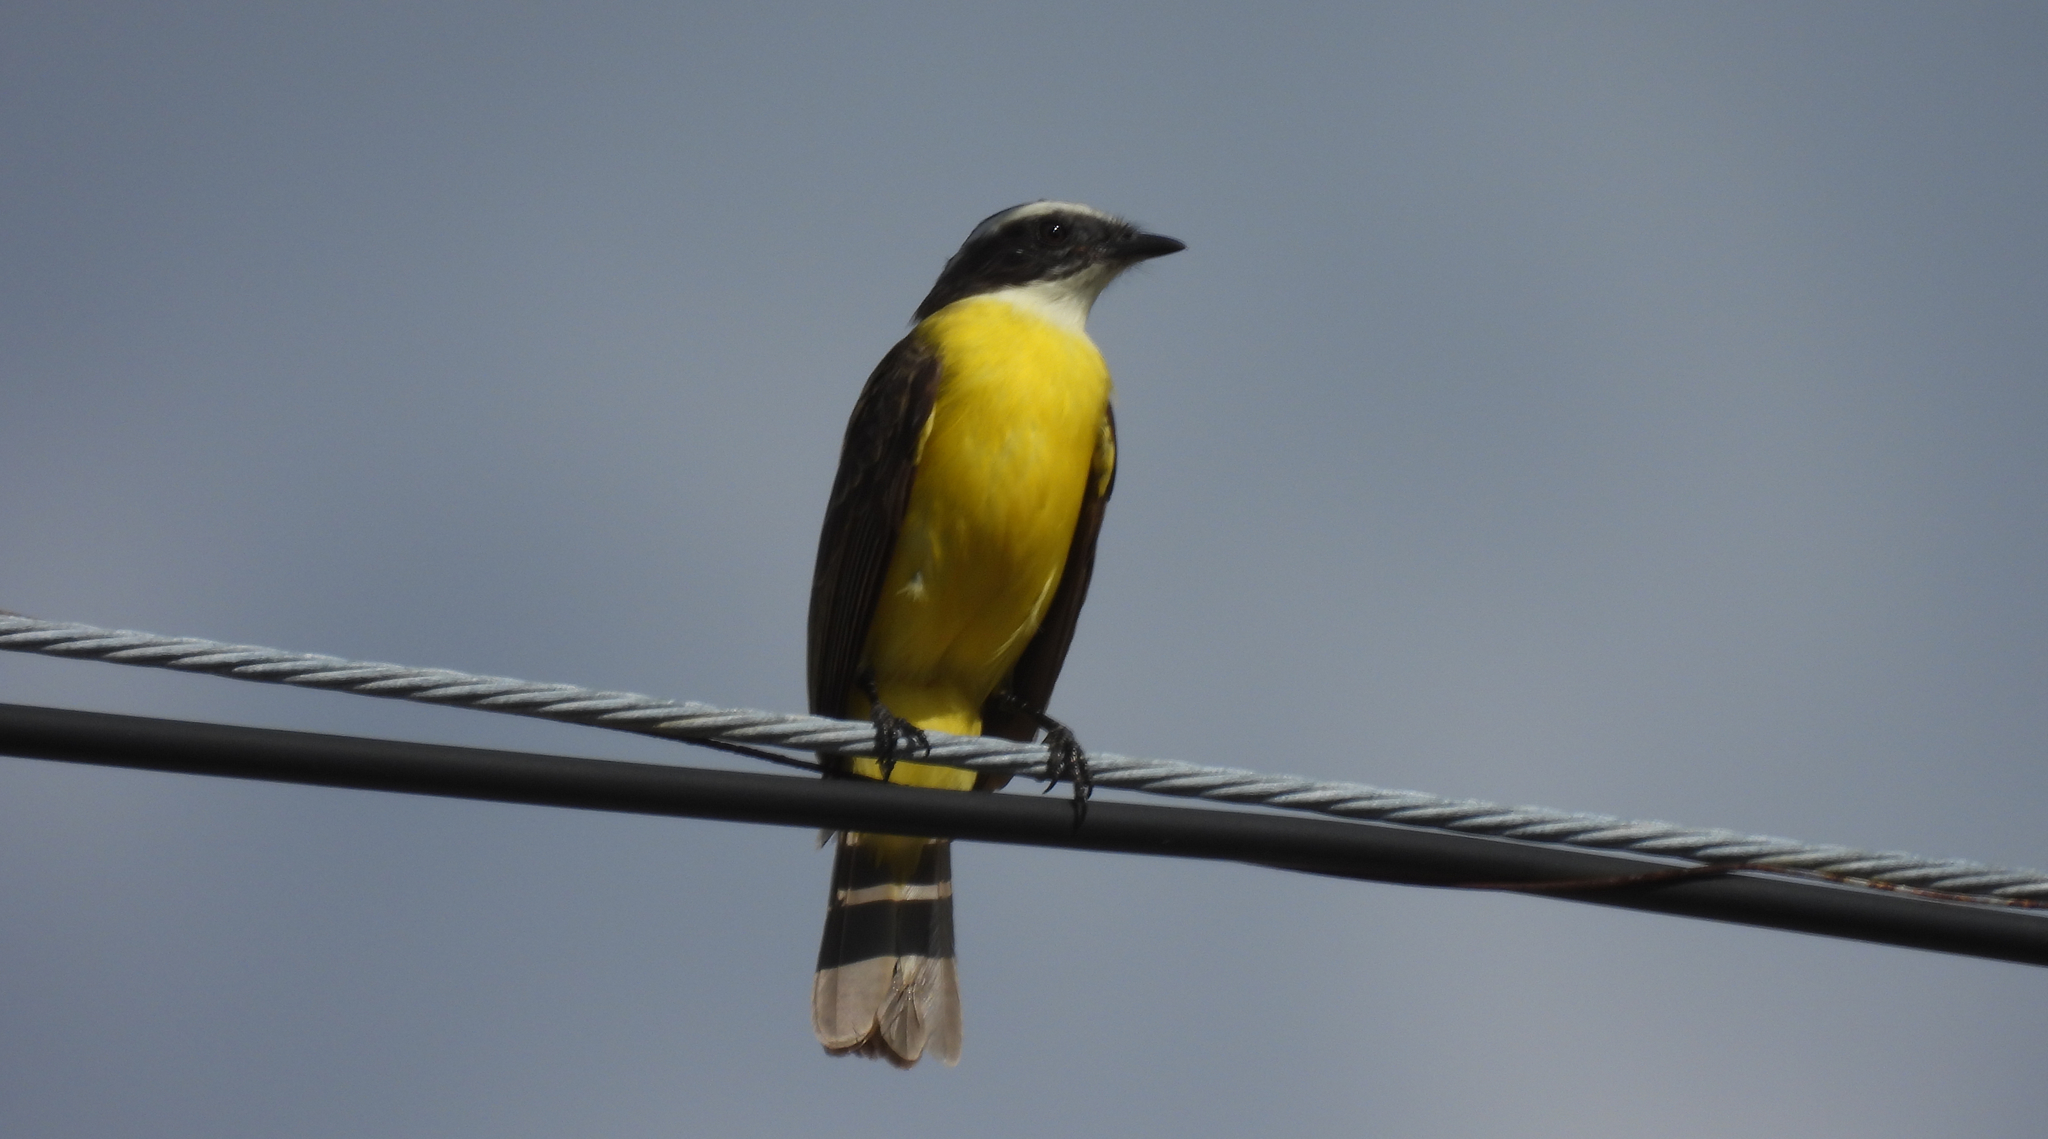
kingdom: Animalia
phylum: Chordata
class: Aves
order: Passeriformes
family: Tyrannidae
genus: Myiozetetes
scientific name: Myiozetetes similis
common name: Social flycatcher
